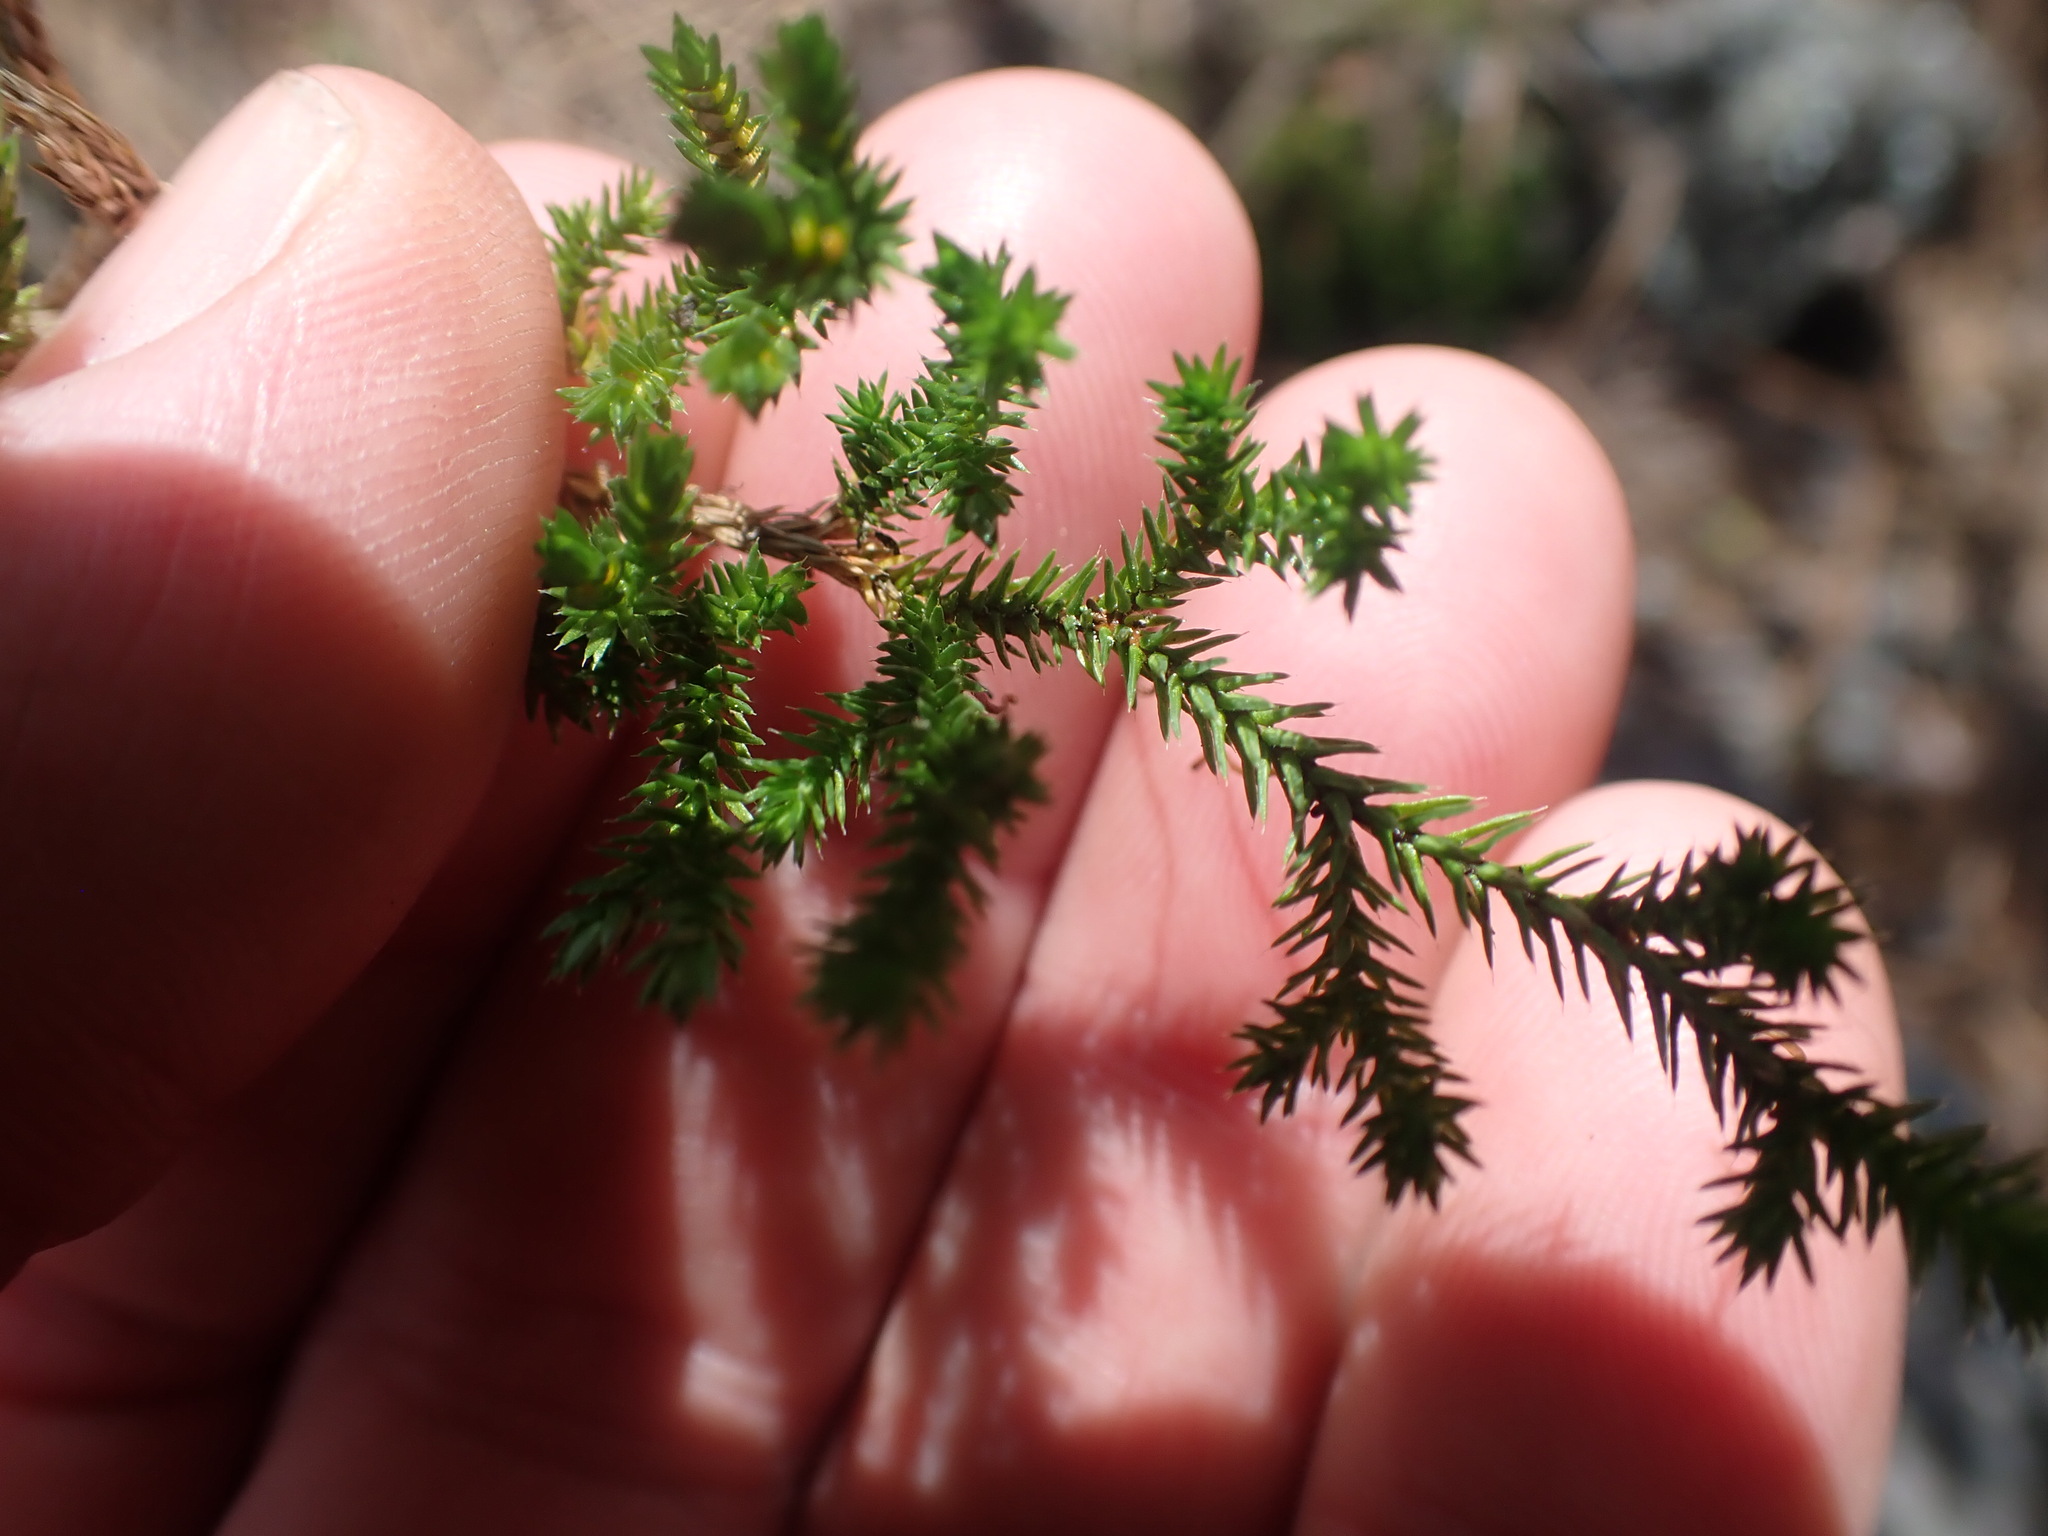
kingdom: Plantae
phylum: Tracheophyta
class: Lycopodiopsida
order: Selaginellales
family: Selaginellaceae
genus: Selaginella
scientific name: Selaginella wallacei
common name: Wallace's selaginella
